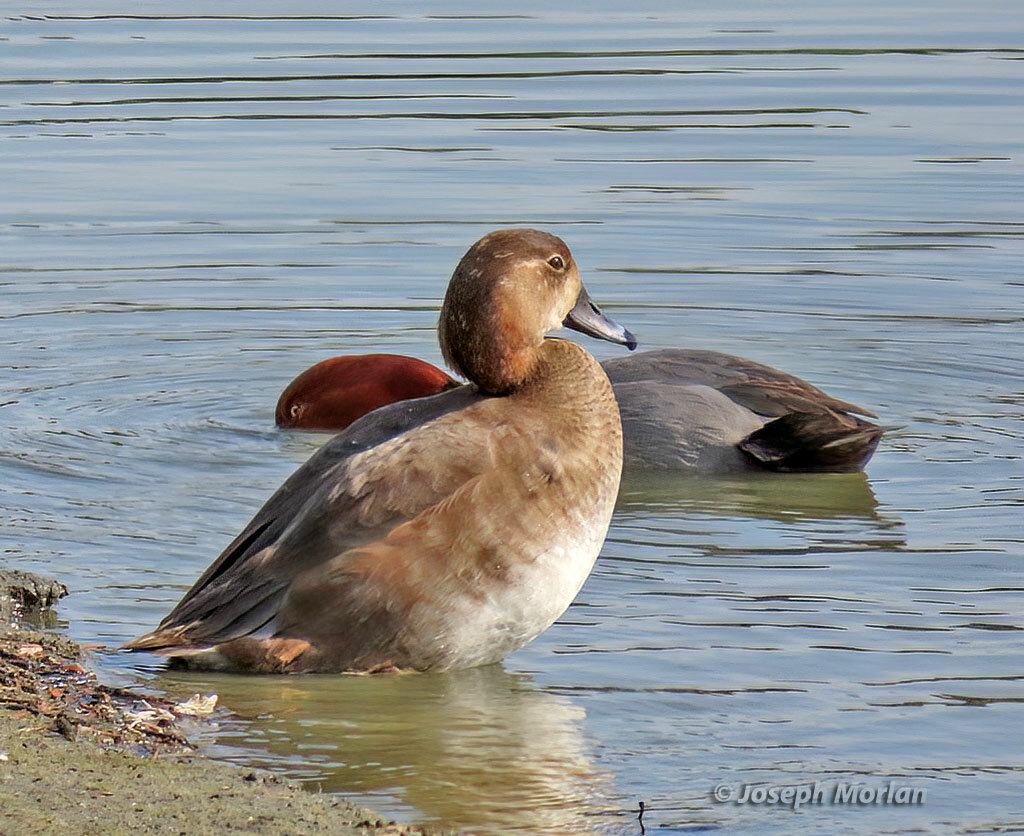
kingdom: Animalia
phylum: Chordata
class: Aves
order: Anseriformes
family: Anatidae
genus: Aythya
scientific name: Aythya americana
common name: Redhead
